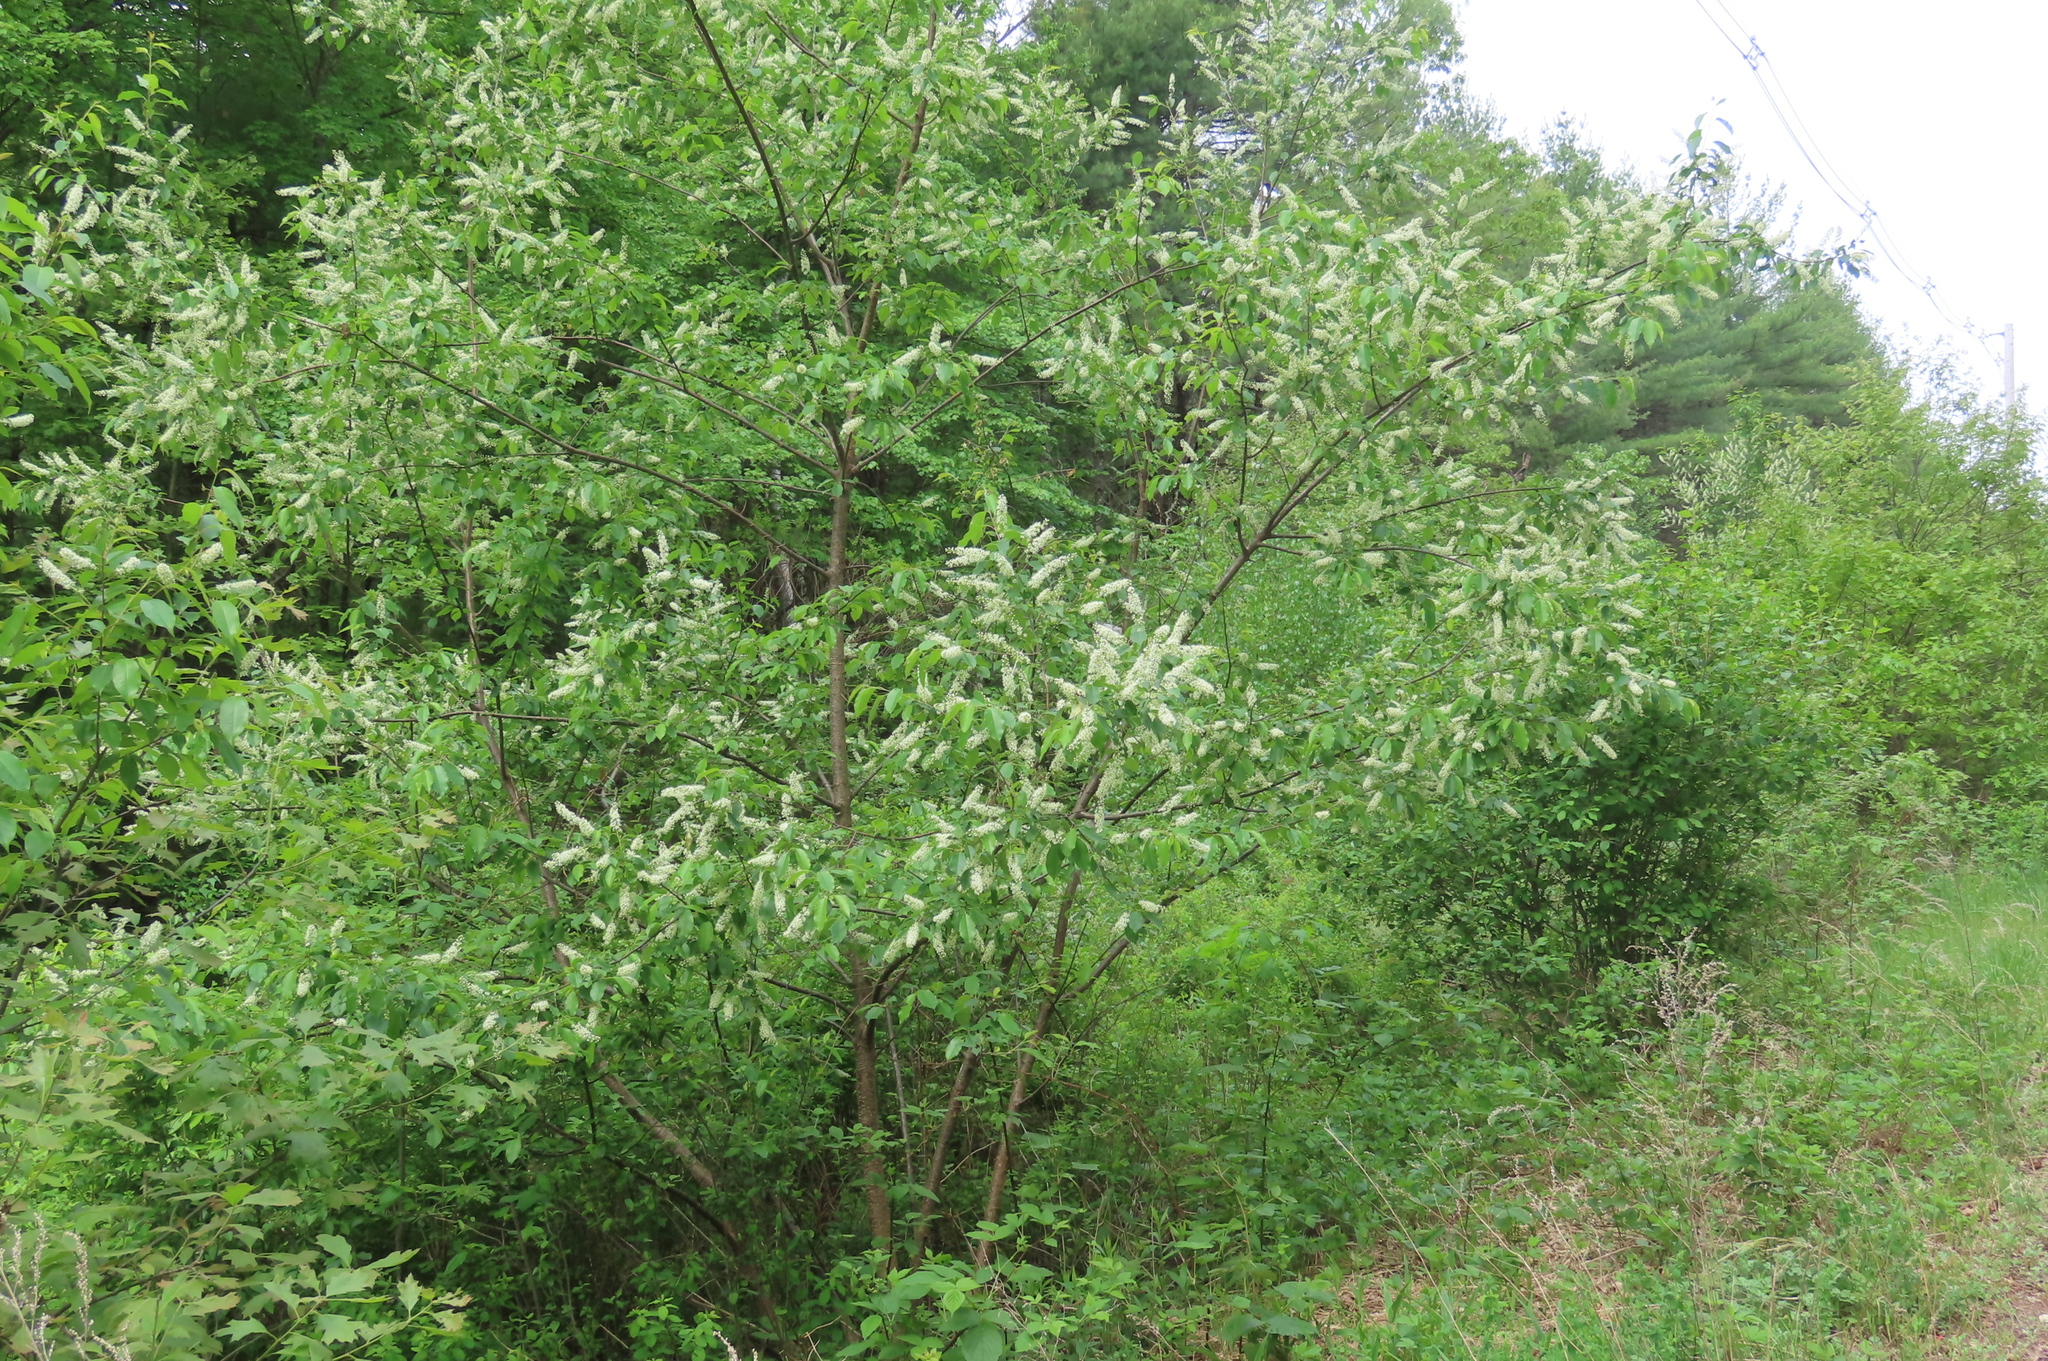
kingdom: Plantae
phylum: Tracheophyta
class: Magnoliopsida
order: Rosales
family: Rosaceae
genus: Prunus
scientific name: Prunus serotina
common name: Black cherry
